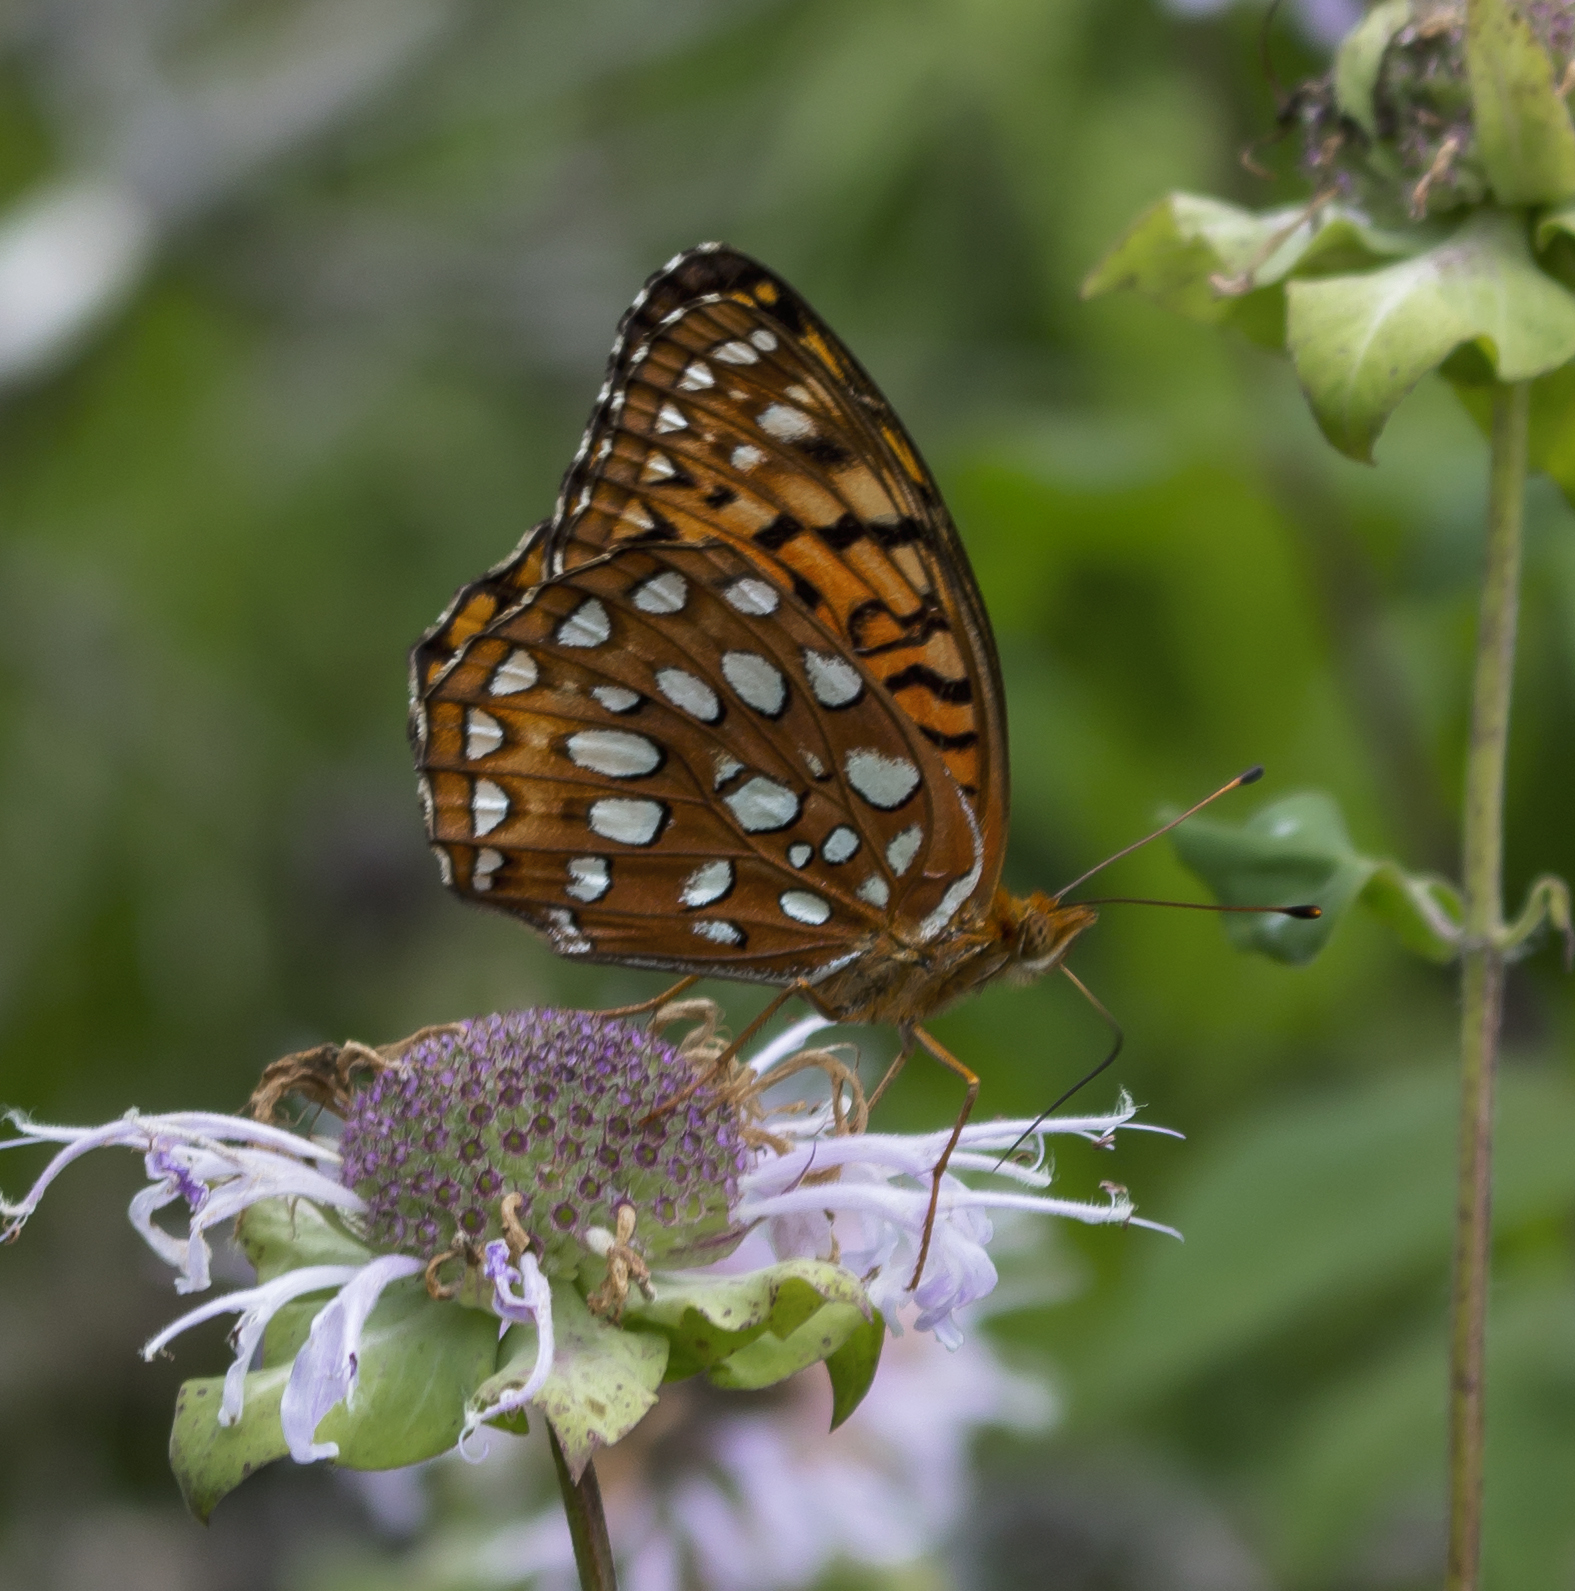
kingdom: Animalia
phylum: Arthropoda
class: Insecta
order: Lepidoptera
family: Nymphalidae
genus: Speyeria
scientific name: Speyeria aphrodite
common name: Aphrodite friitllary
